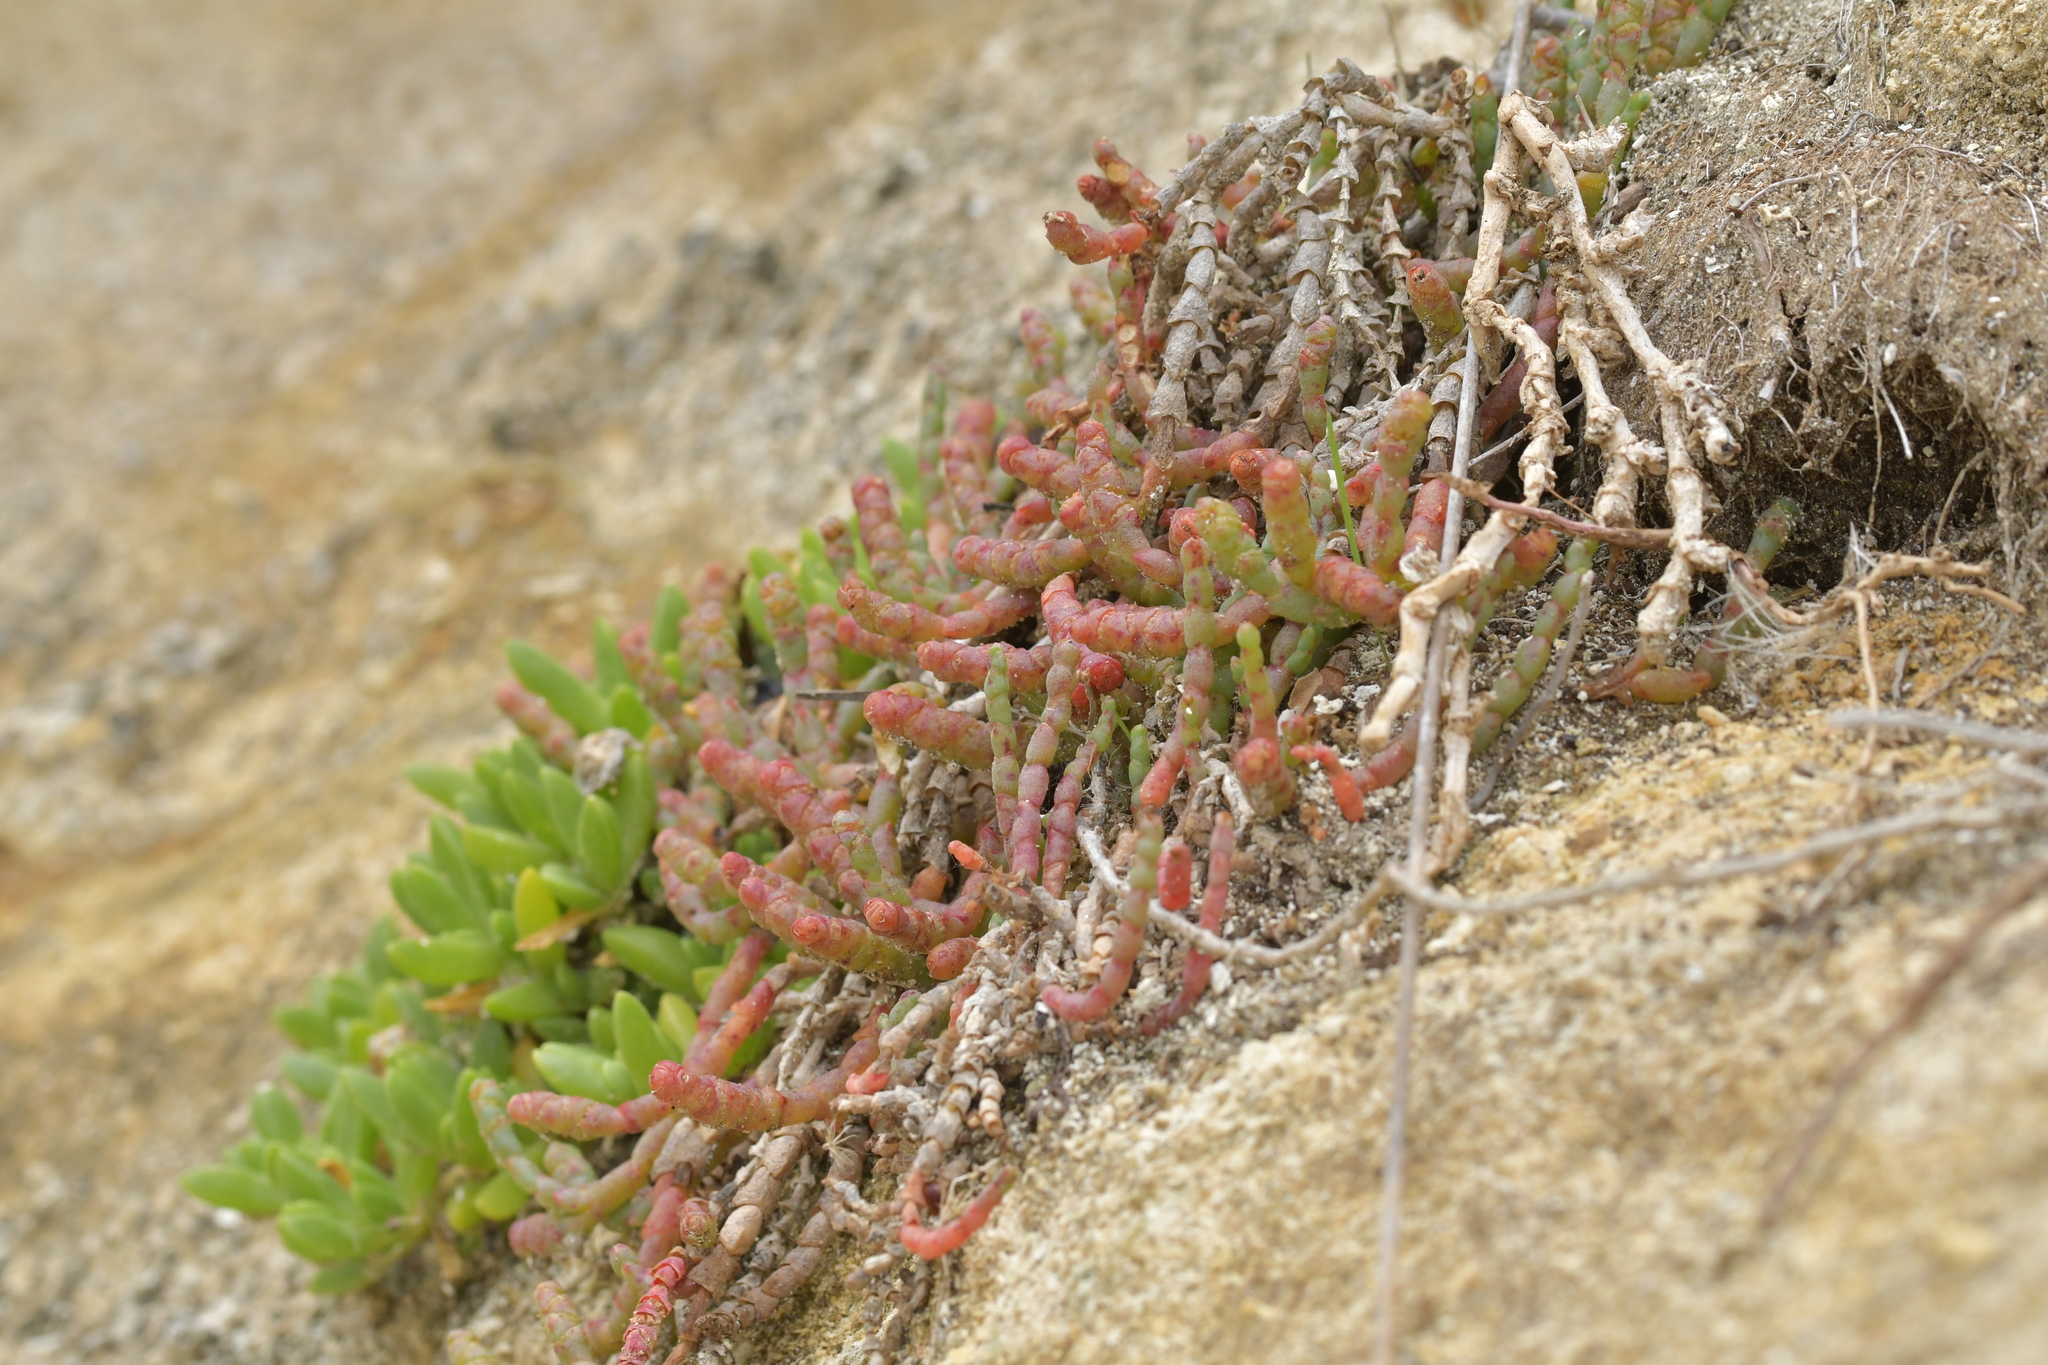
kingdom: Plantae
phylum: Tracheophyta
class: Magnoliopsida
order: Caryophyllales
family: Amaranthaceae
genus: Salicornia
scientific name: Salicornia quinqueflora
